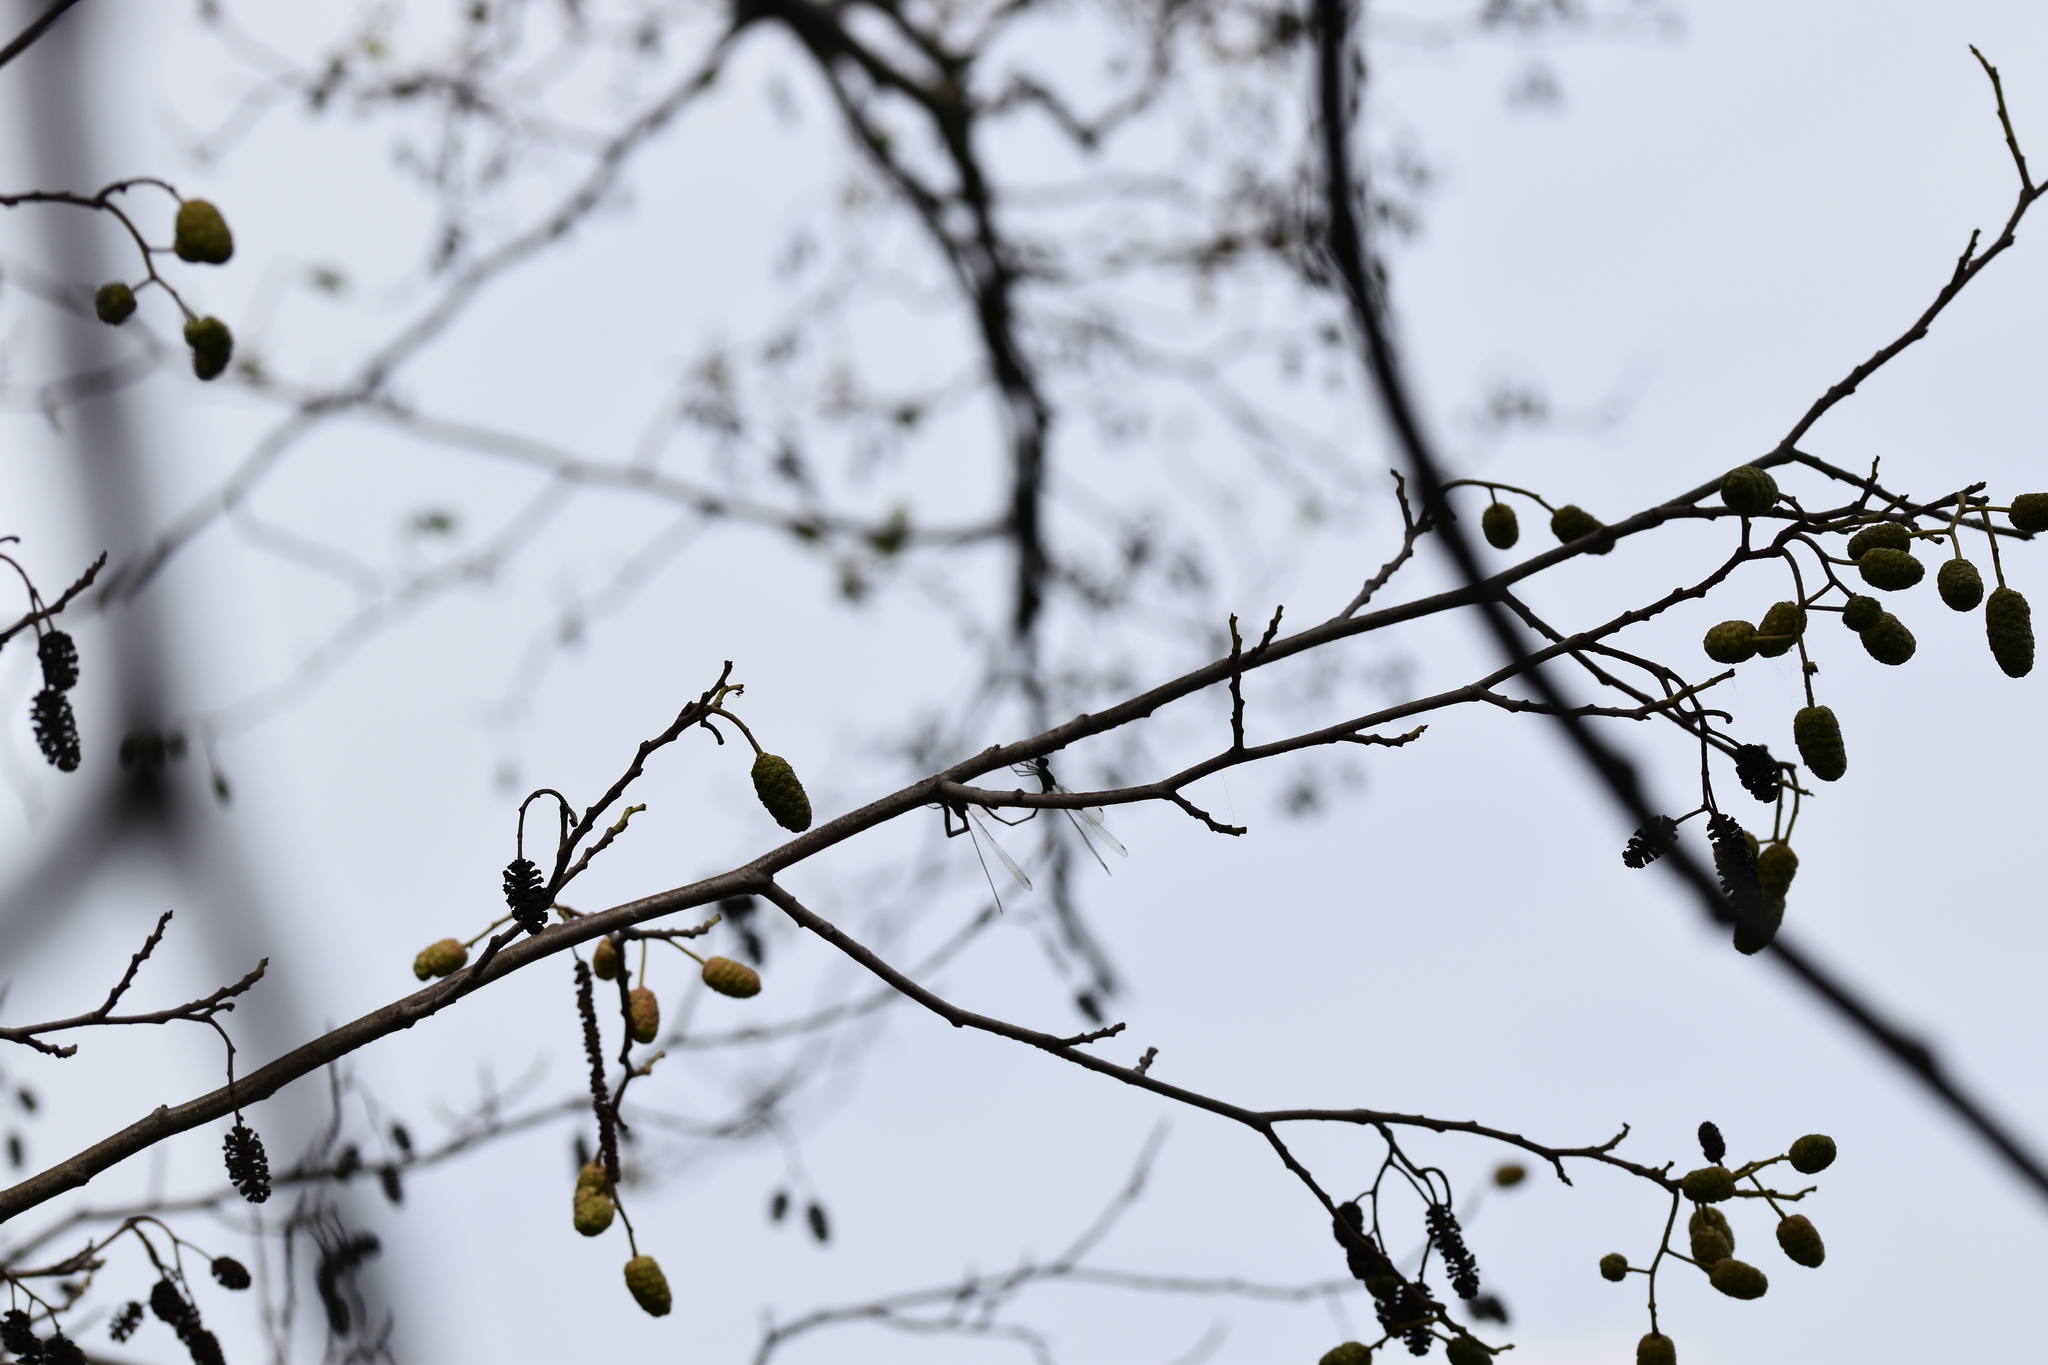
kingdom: Animalia
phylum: Arthropoda
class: Insecta
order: Odonata
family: Lestidae
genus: Chalcolestes
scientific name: Chalcolestes viridis
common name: Green emerald damselfly
